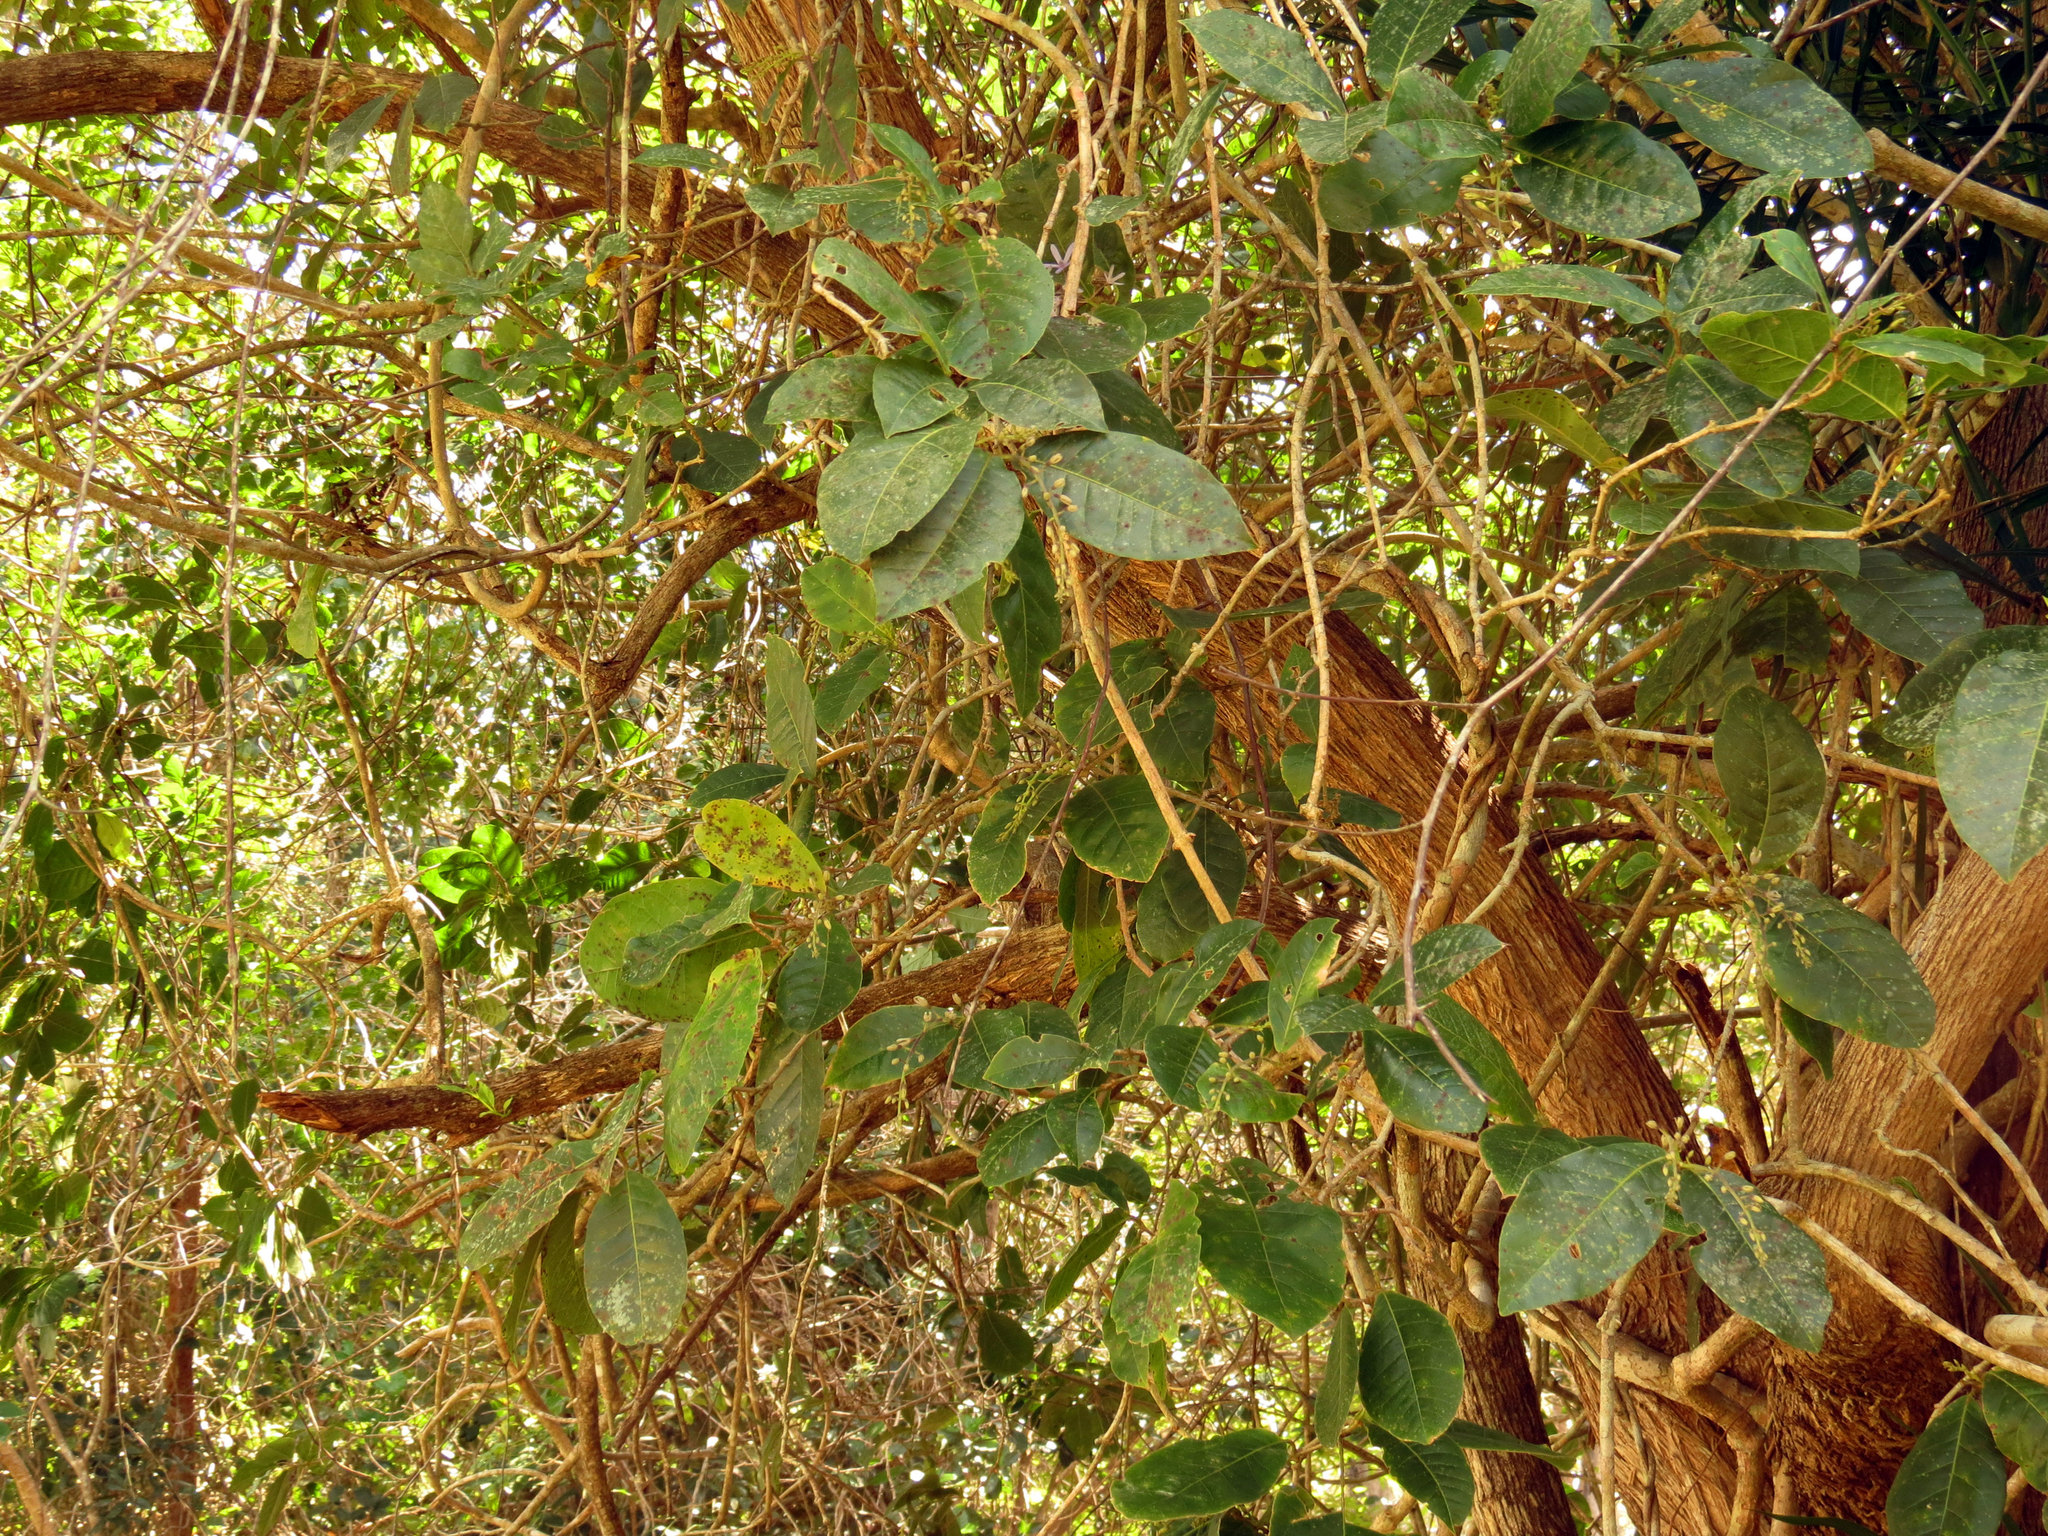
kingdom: Plantae
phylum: Tracheophyta
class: Magnoliopsida
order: Lamiales
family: Verbenaceae
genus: Petrea
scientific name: Petrea volubilis
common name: Queen's-wreath
